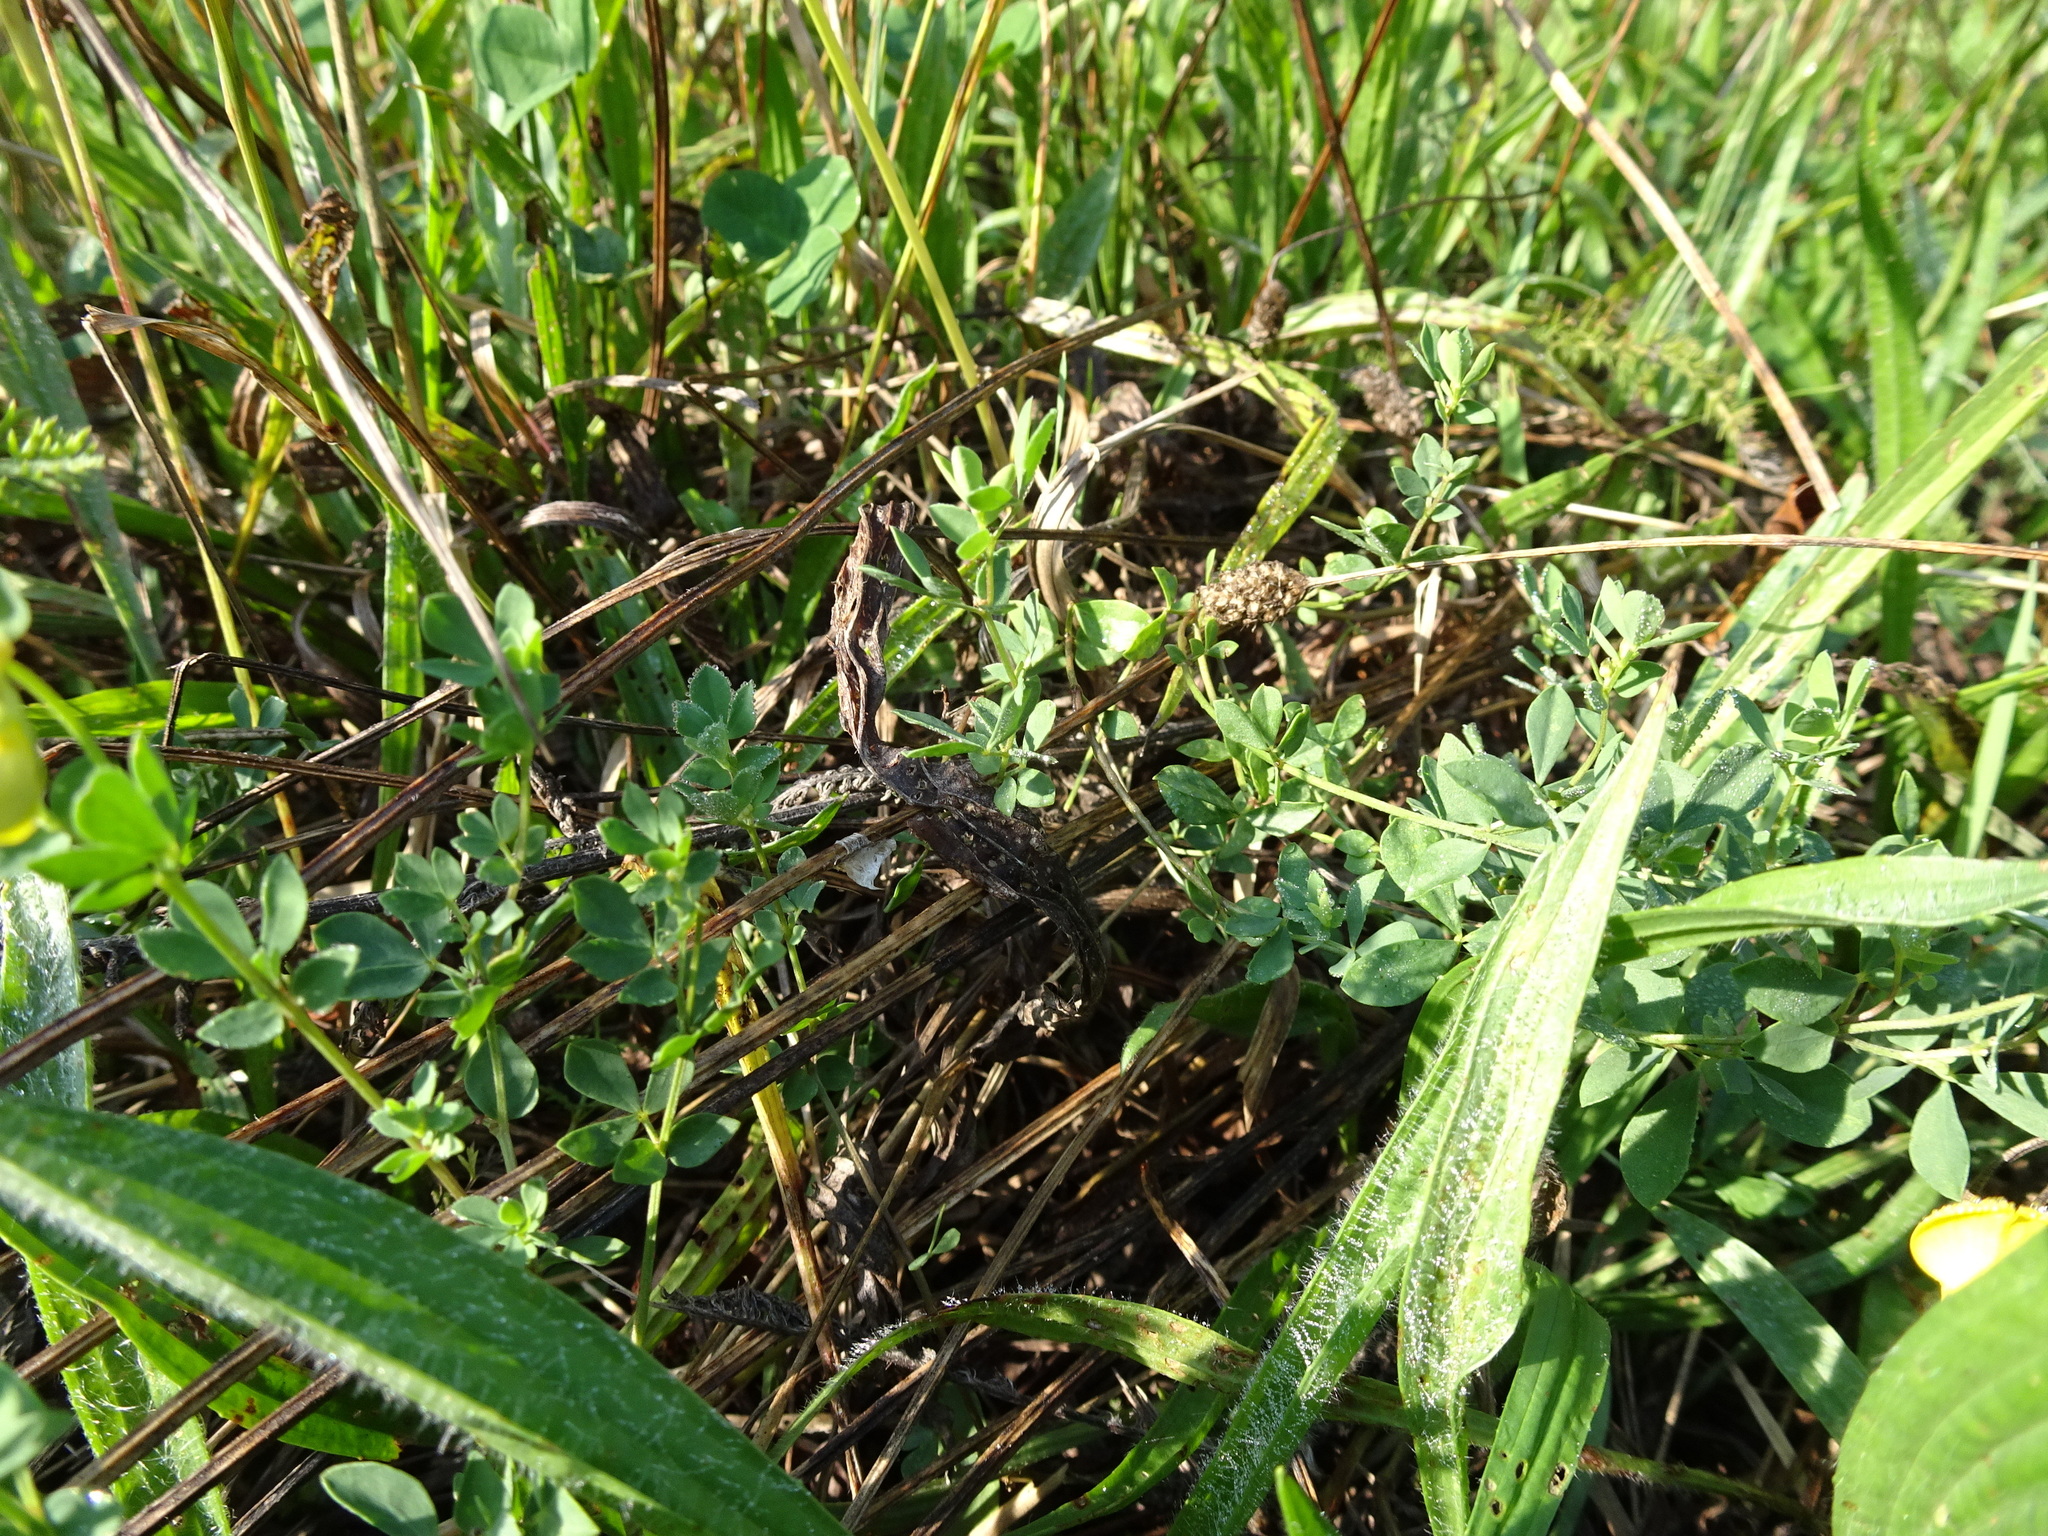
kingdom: Plantae
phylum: Tracheophyta
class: Magnoliopsida
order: Fabales
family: Fabaceae
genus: Lotus
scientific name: Lotus corniculatus
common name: Common bird's-foot-trefoil
